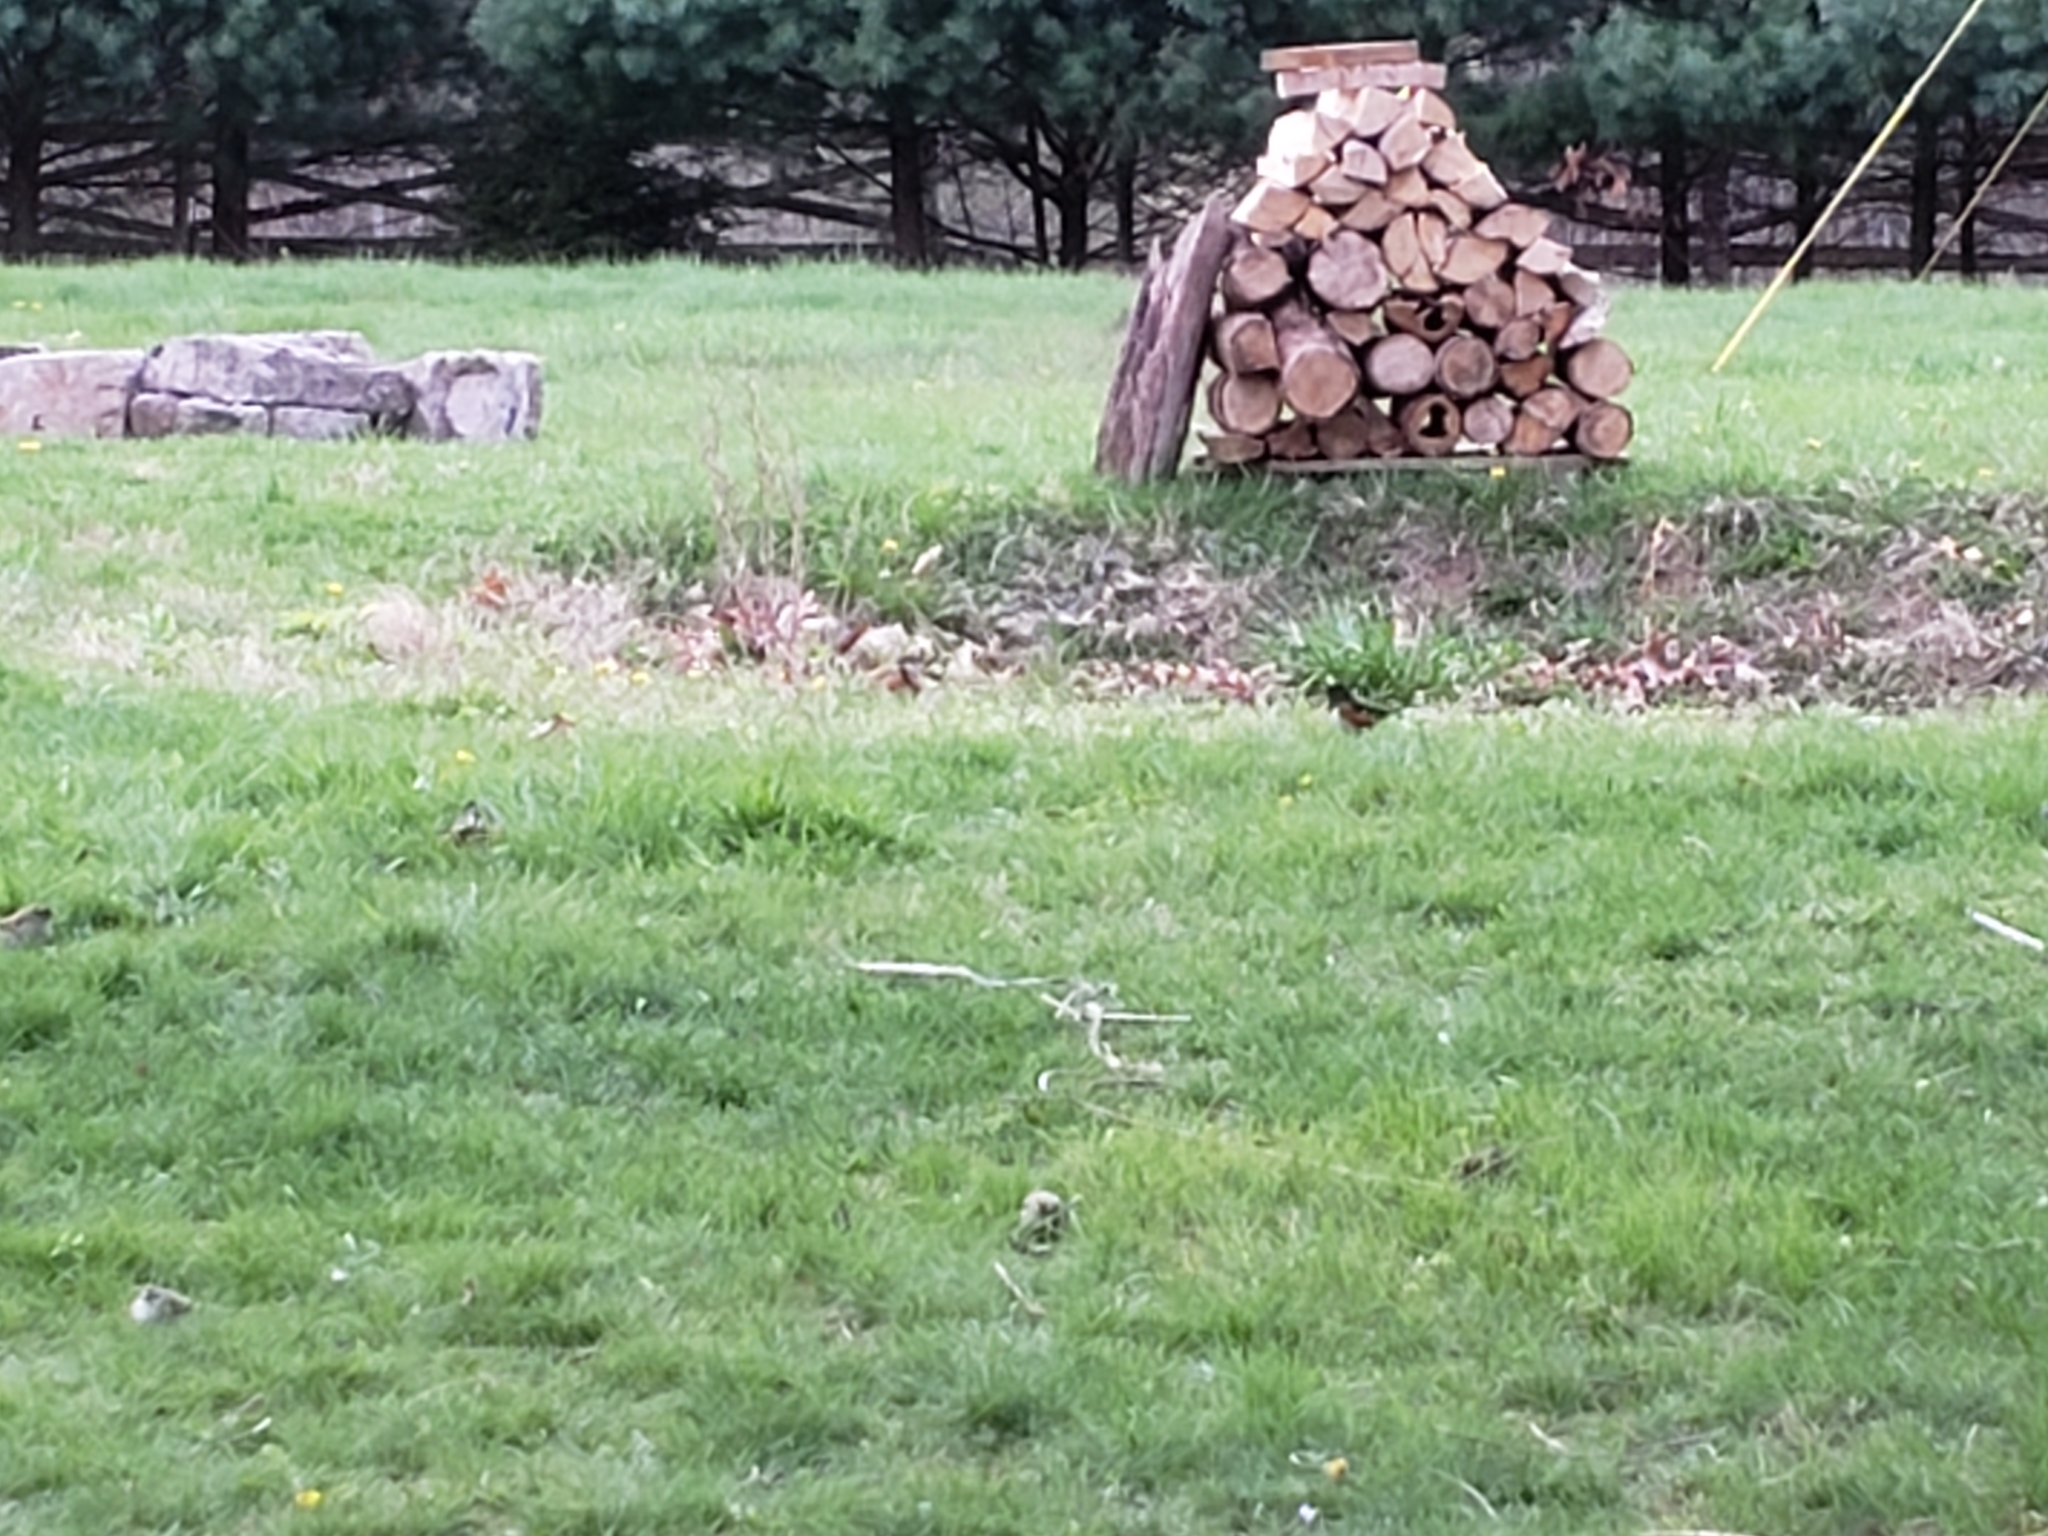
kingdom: Animalia
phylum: Chordata
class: Aves
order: Passeriformes
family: Passerellidae
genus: Pipilo
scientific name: Pipilo erythrophthalmus
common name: Eastern towhee
